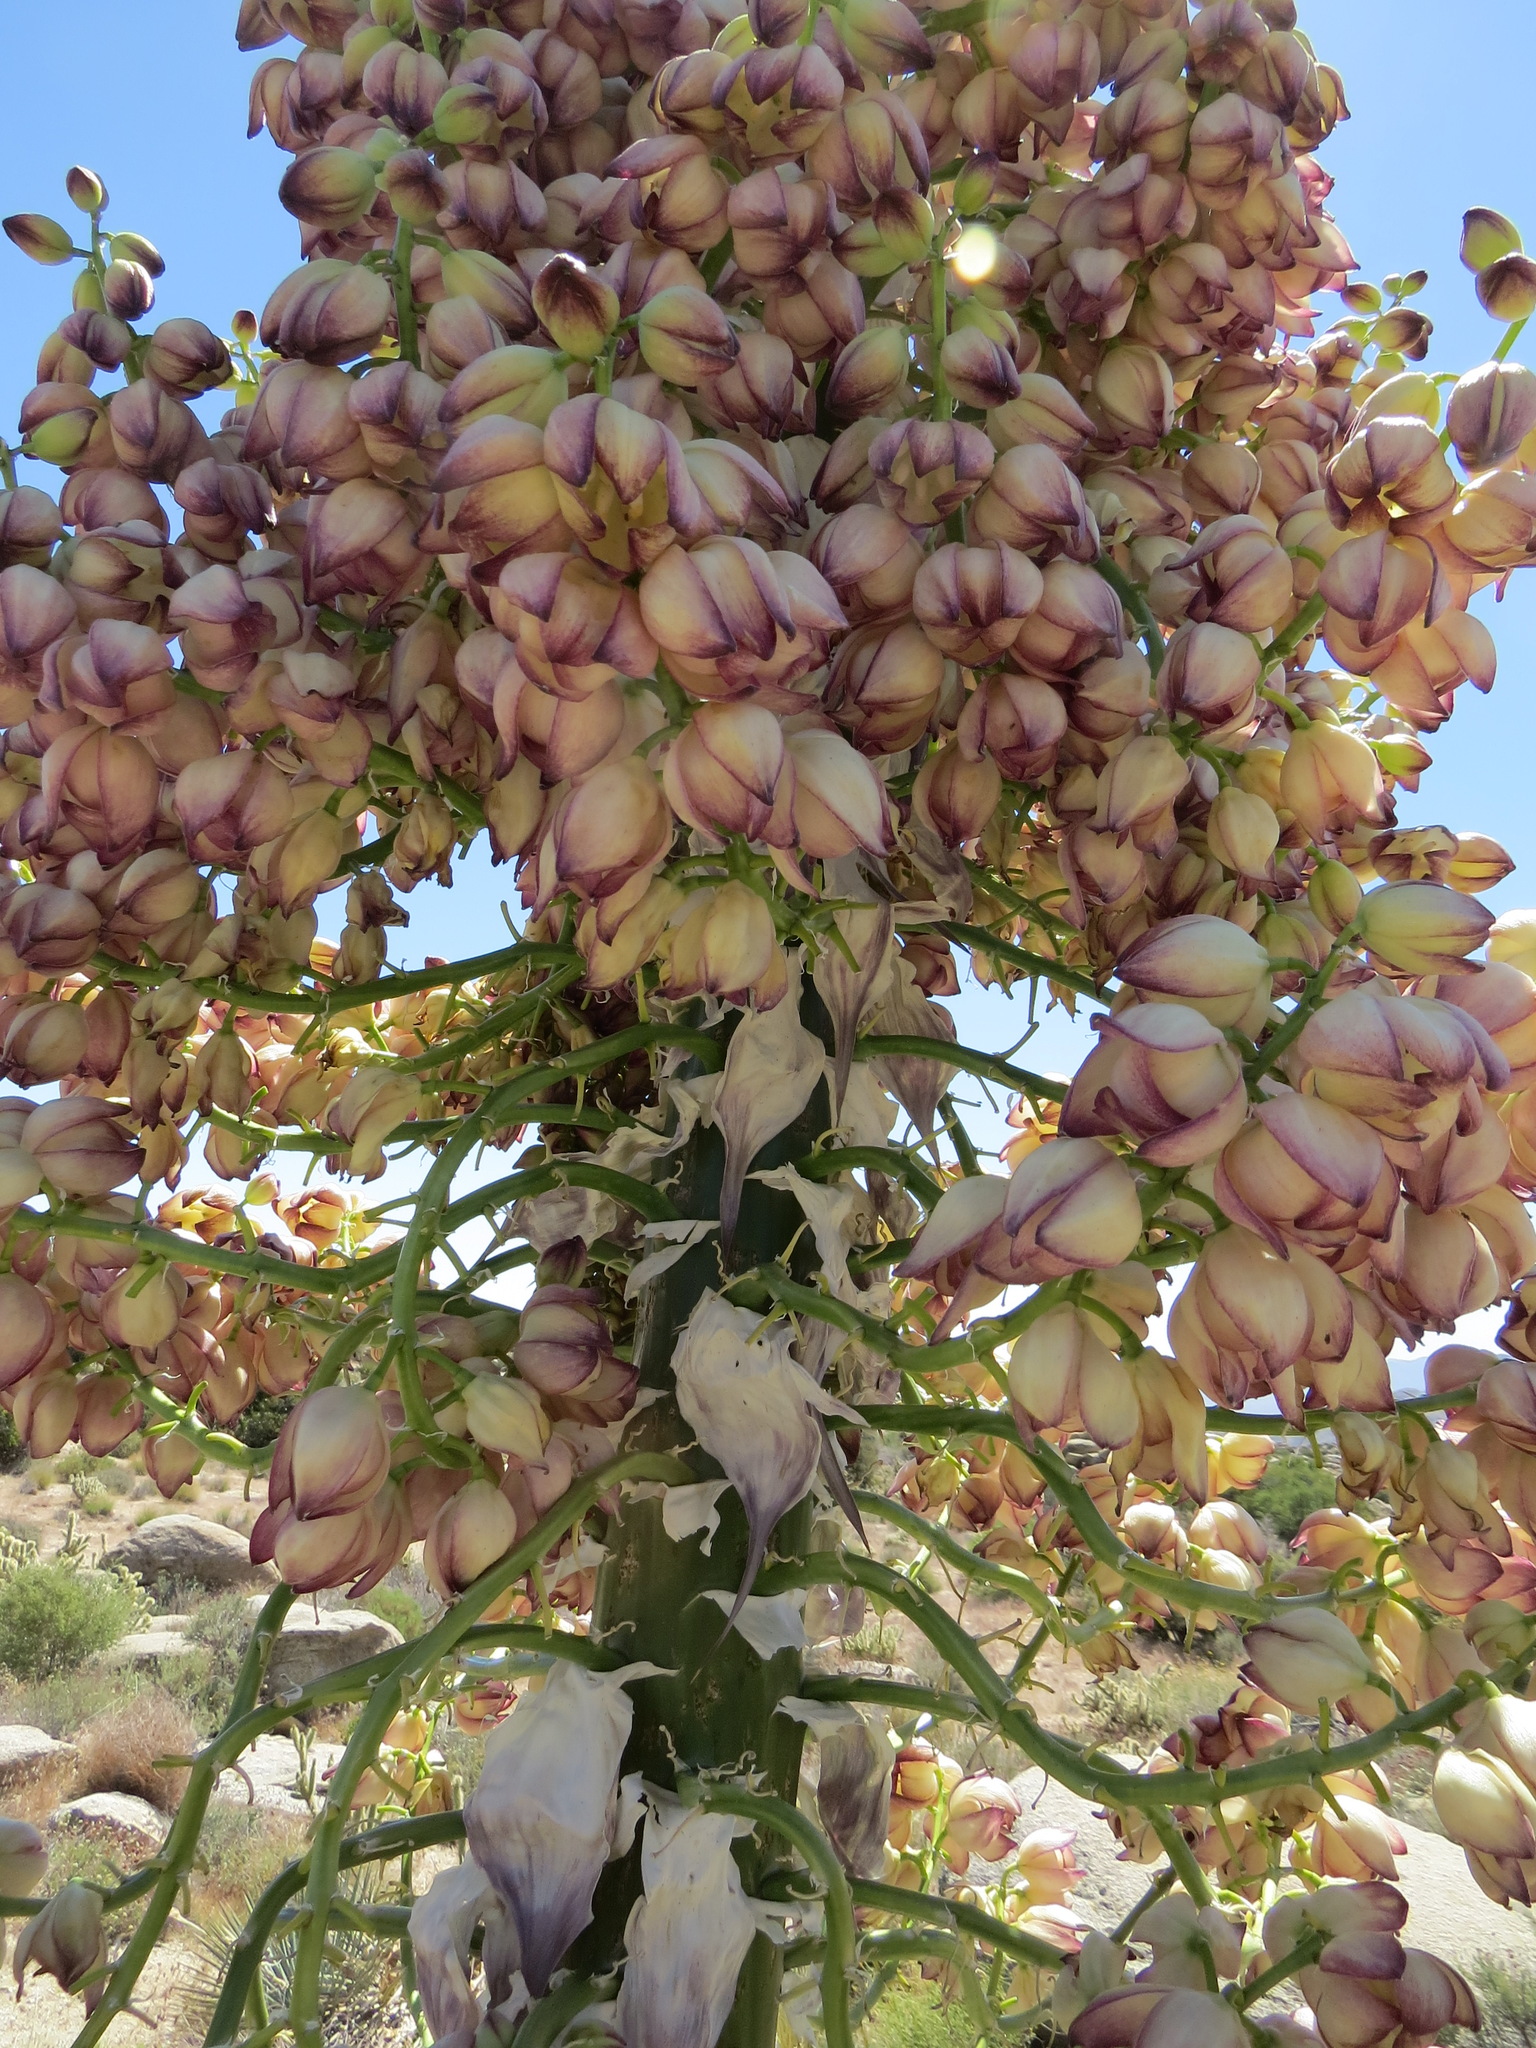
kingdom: Plantae
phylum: Tracheophyta
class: Liliopsida
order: Asparagales
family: Asparagaceae
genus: Hesperoyucca
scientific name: Hesperoyucca whipplei
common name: Our lord's-candle
